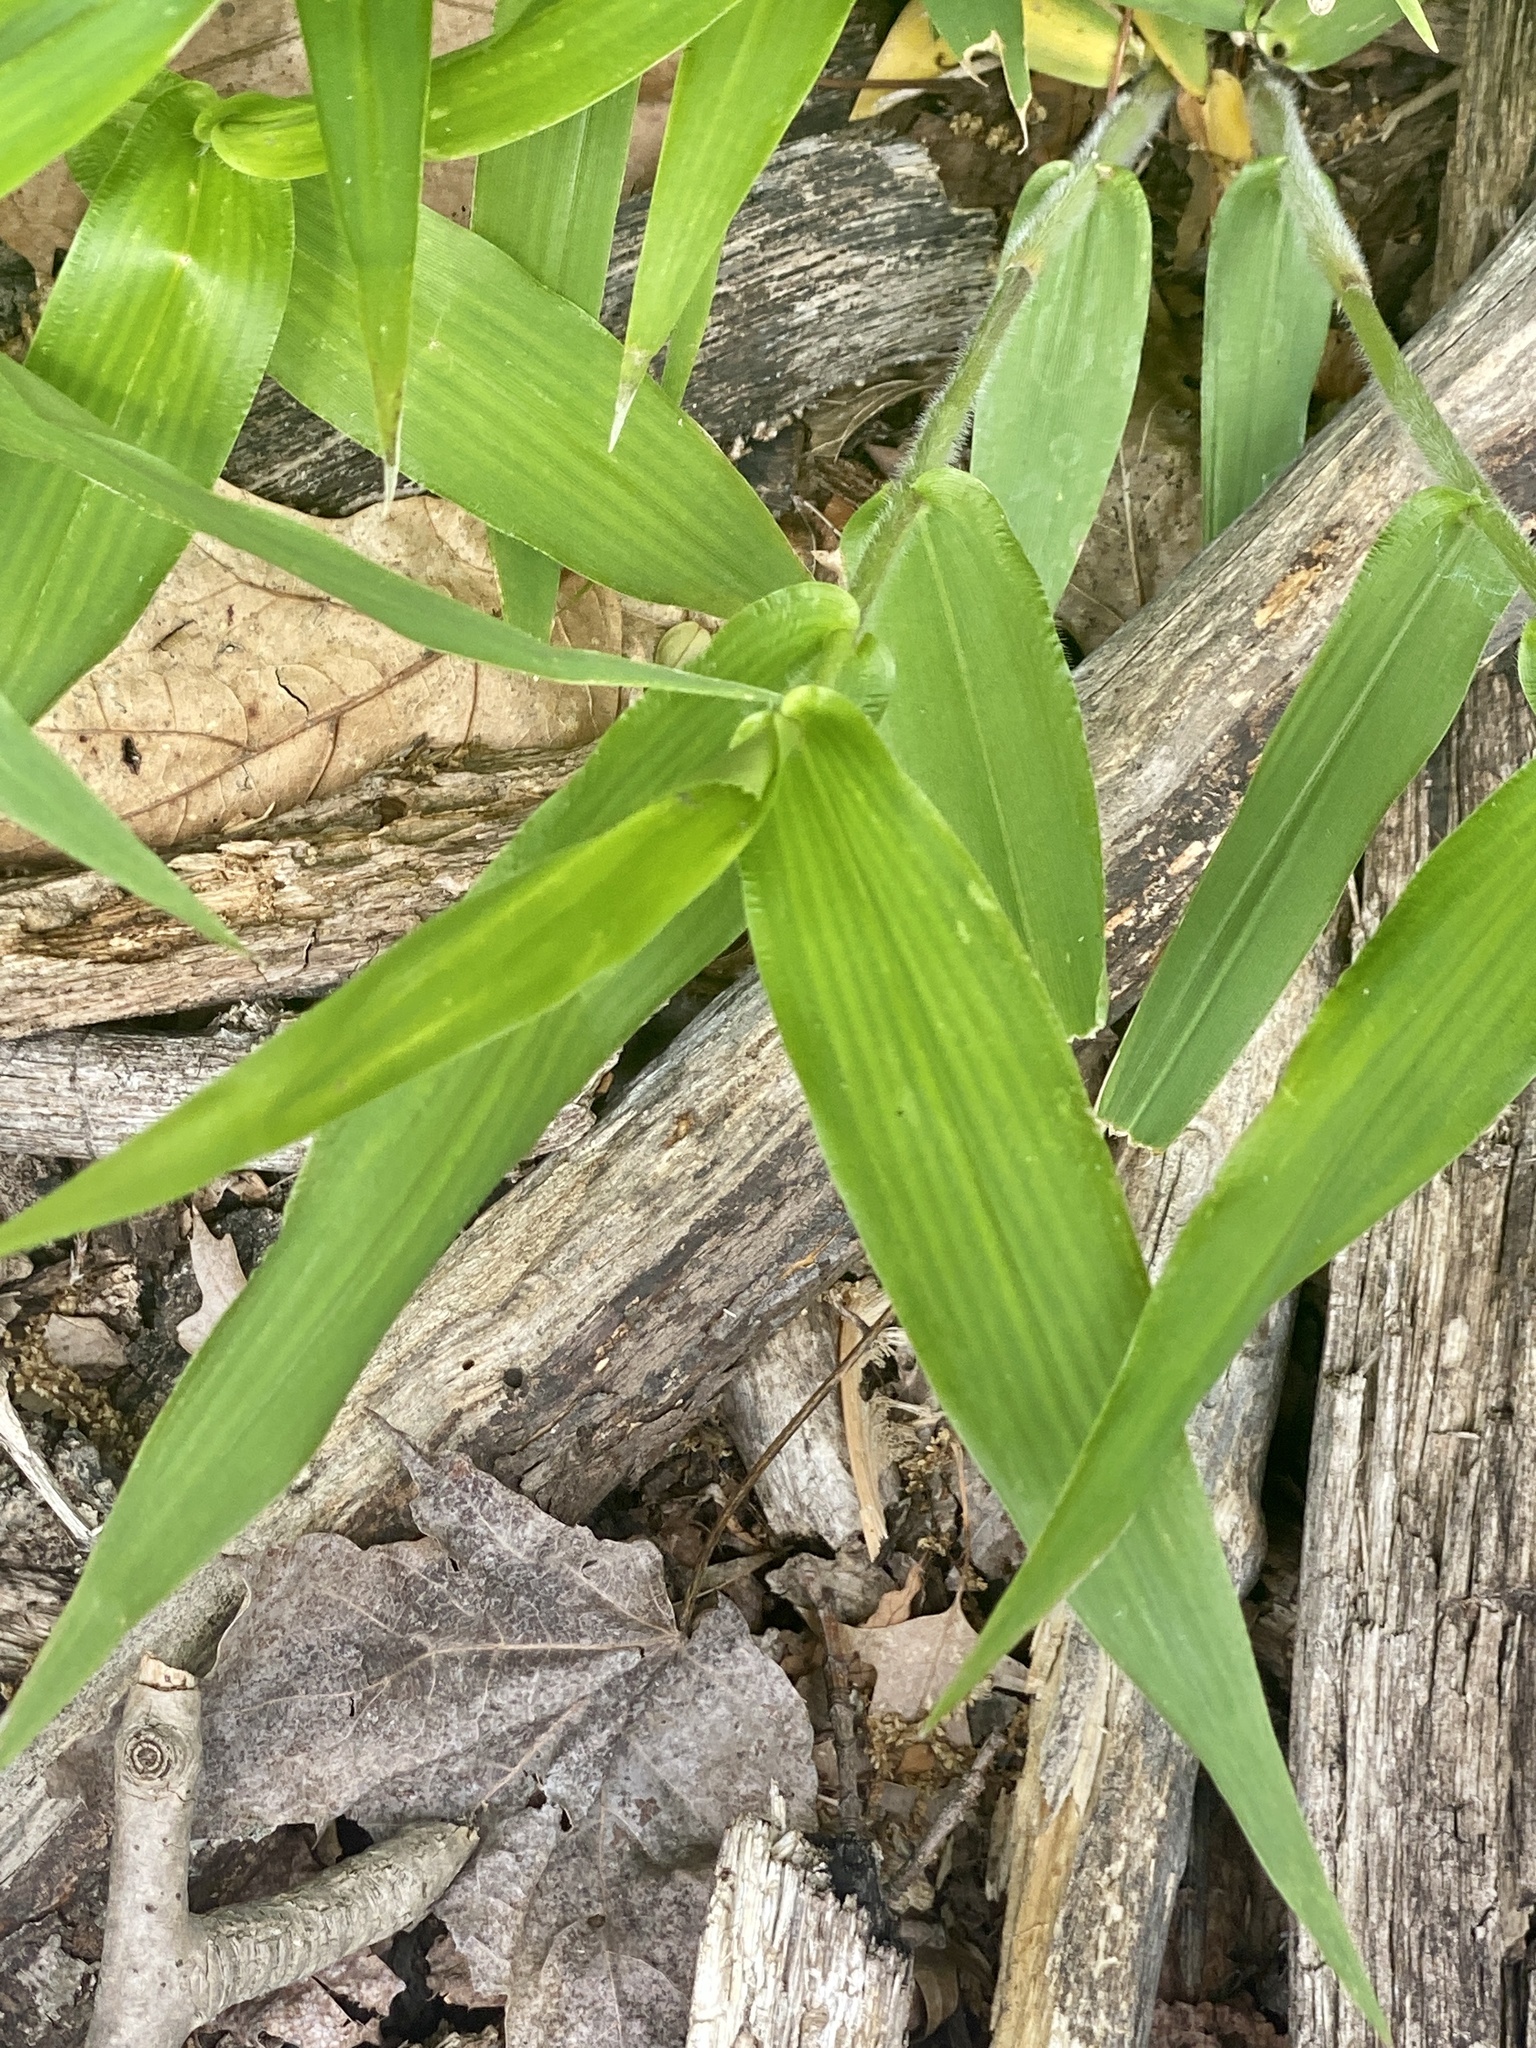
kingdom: Plantae
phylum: Tracheophyta
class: Liliopsida
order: Poales
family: Poaceae
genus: Dichanthelium
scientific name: Dichanthelium clandestinum
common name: Deer-tongue grass
